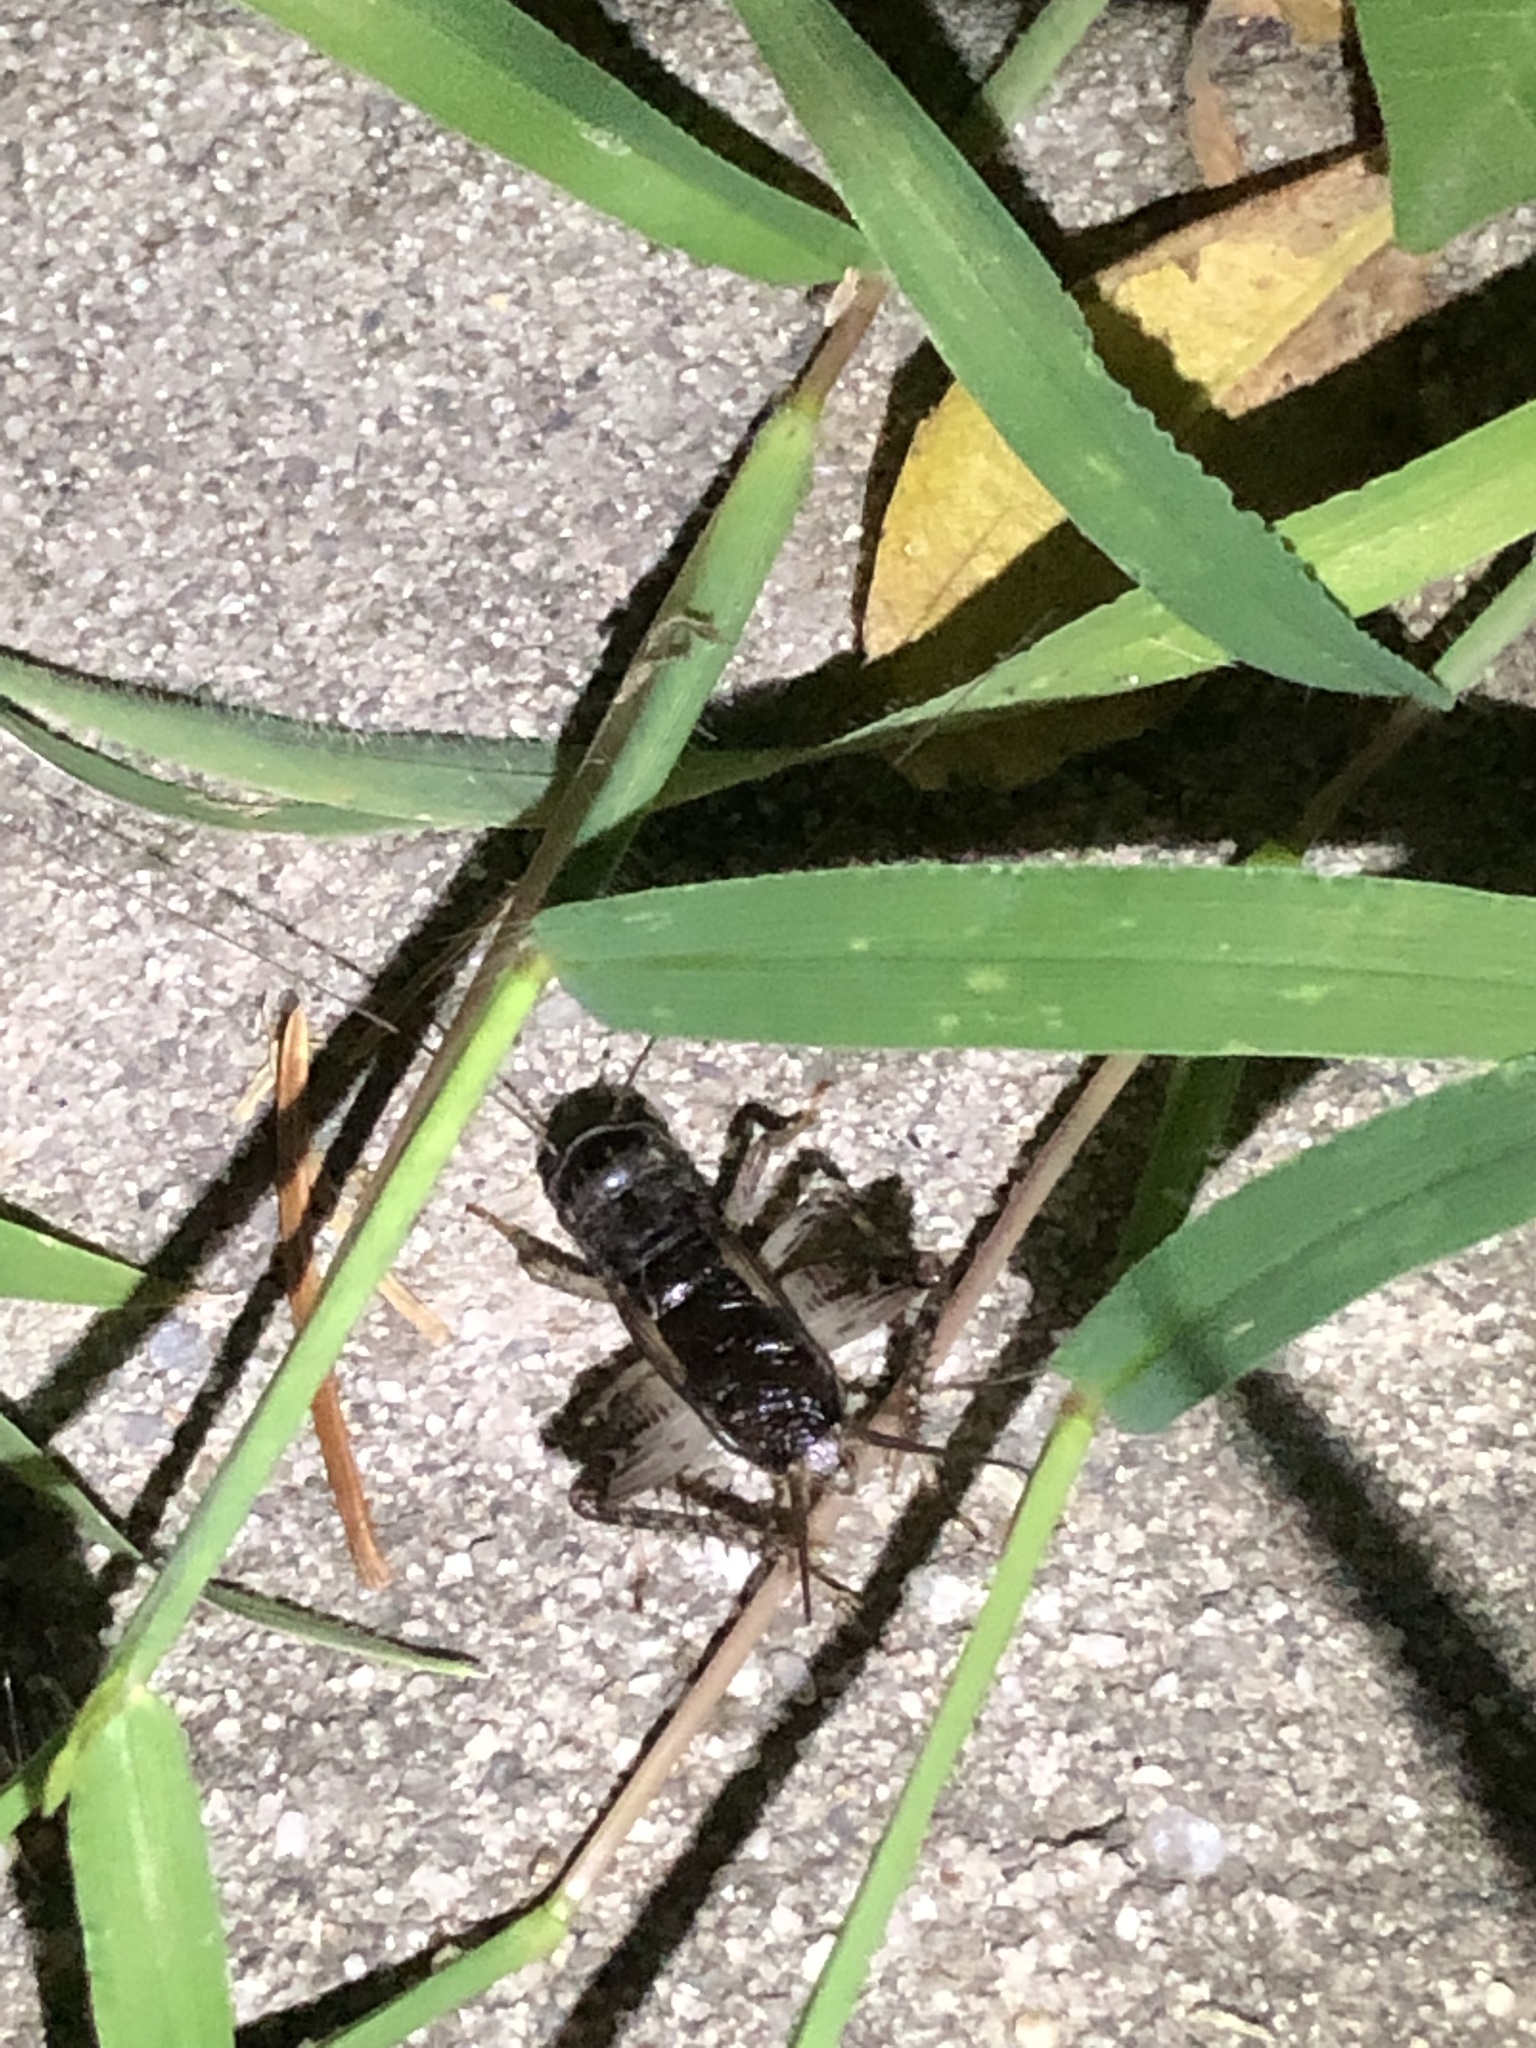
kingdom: Animalia
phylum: Arthropoda
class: Insecta
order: Orthoptera
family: Gryllidae
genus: Velarifictorus
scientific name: Velarifictorus micado
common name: Japanese burrowing cricket
